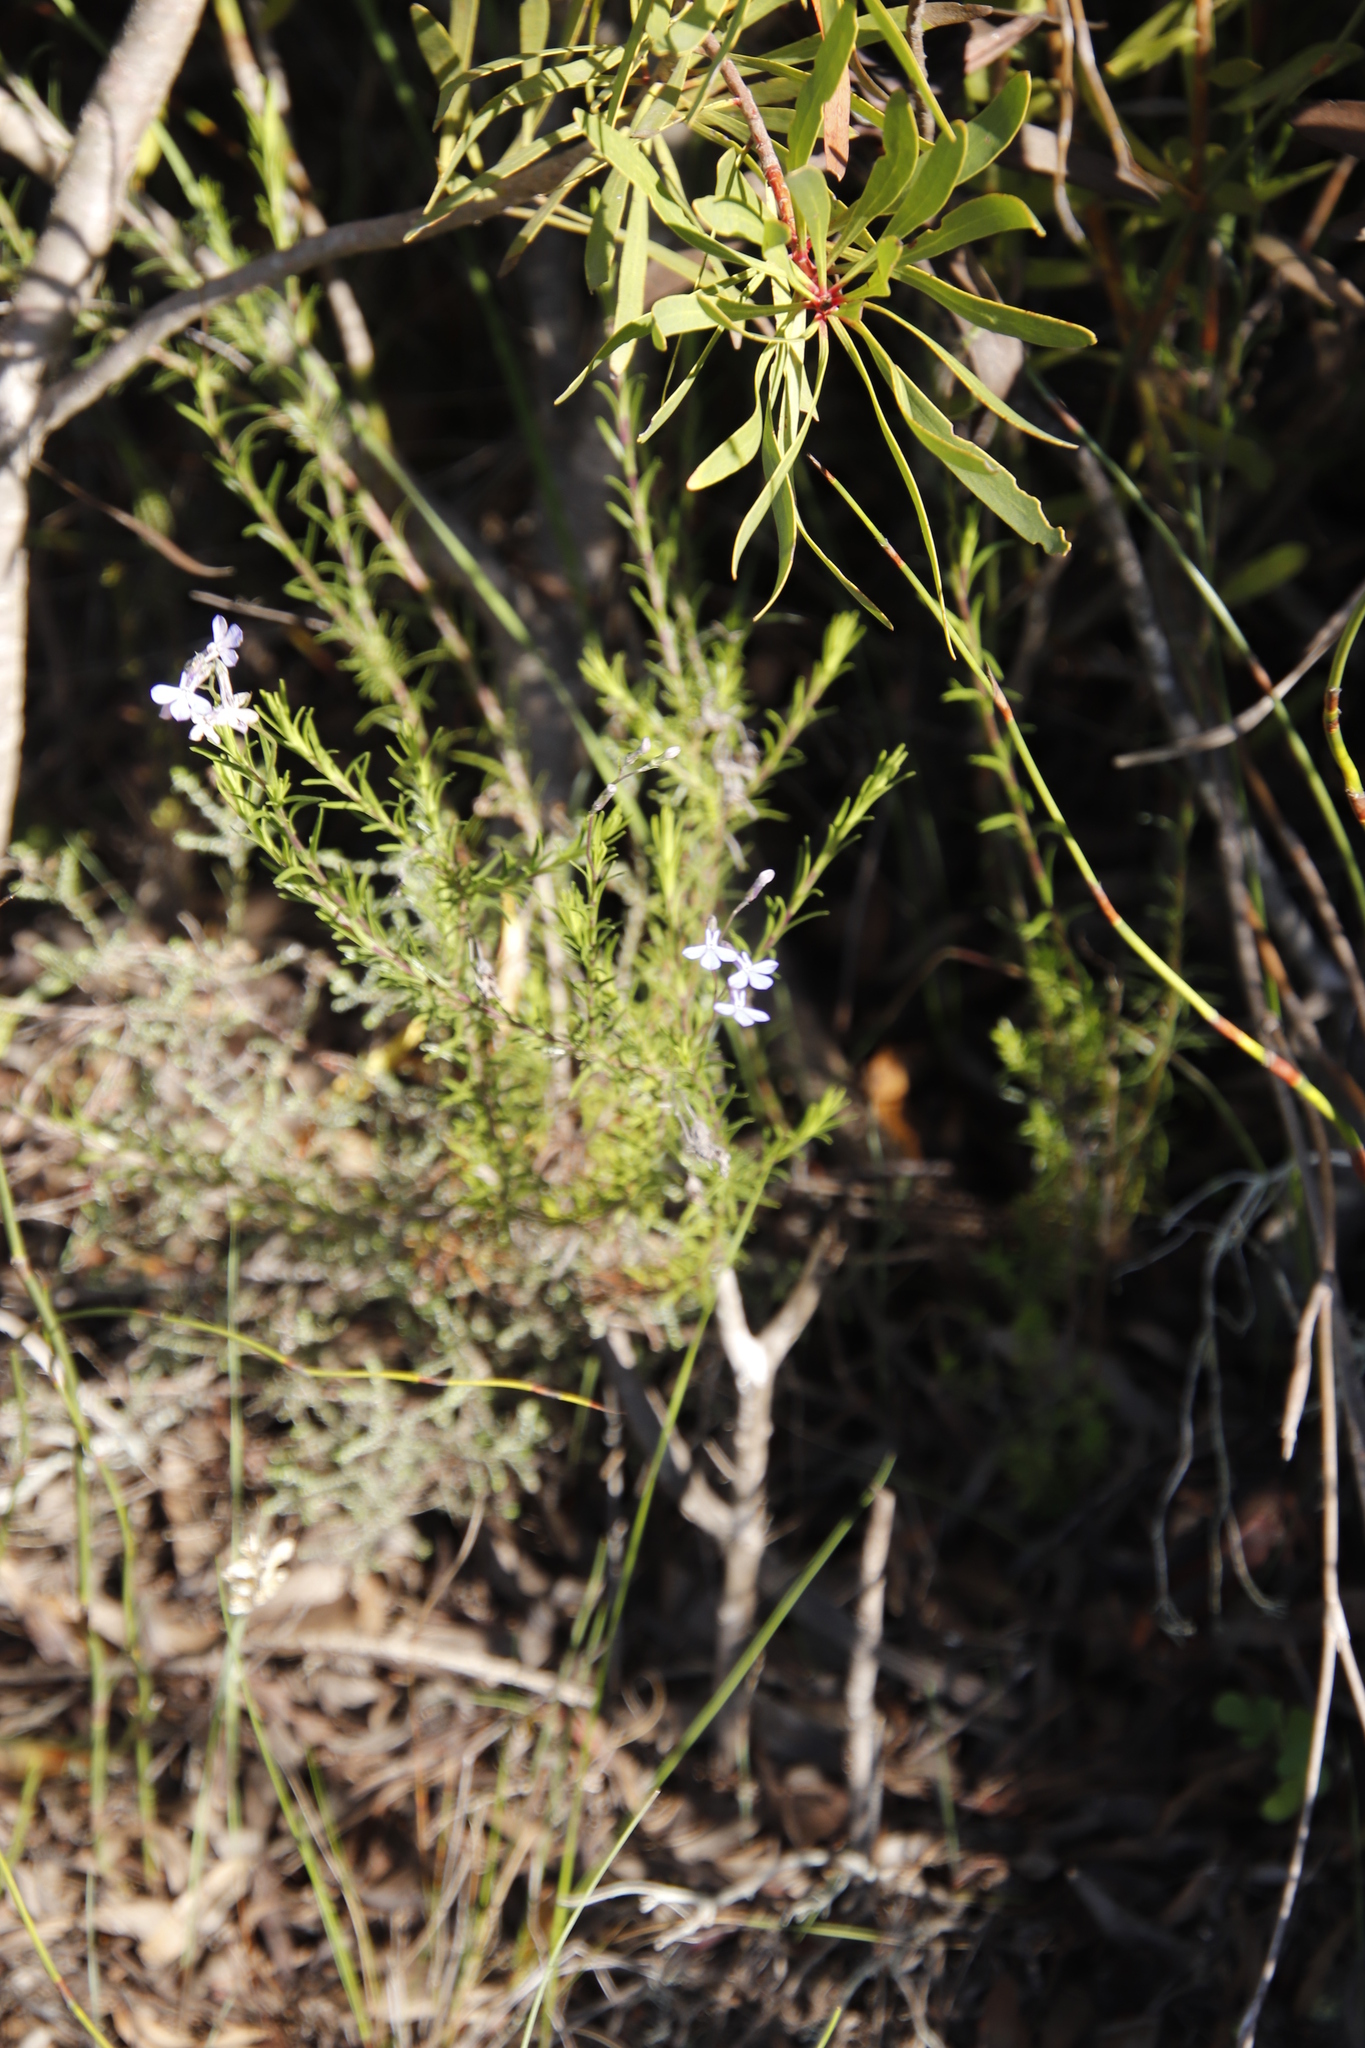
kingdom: Plantae
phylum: Tracheophyta
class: Magnoliopsida
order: Asterales
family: Campanulaceae
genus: Lobelia
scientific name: Lobelia pinifolia
